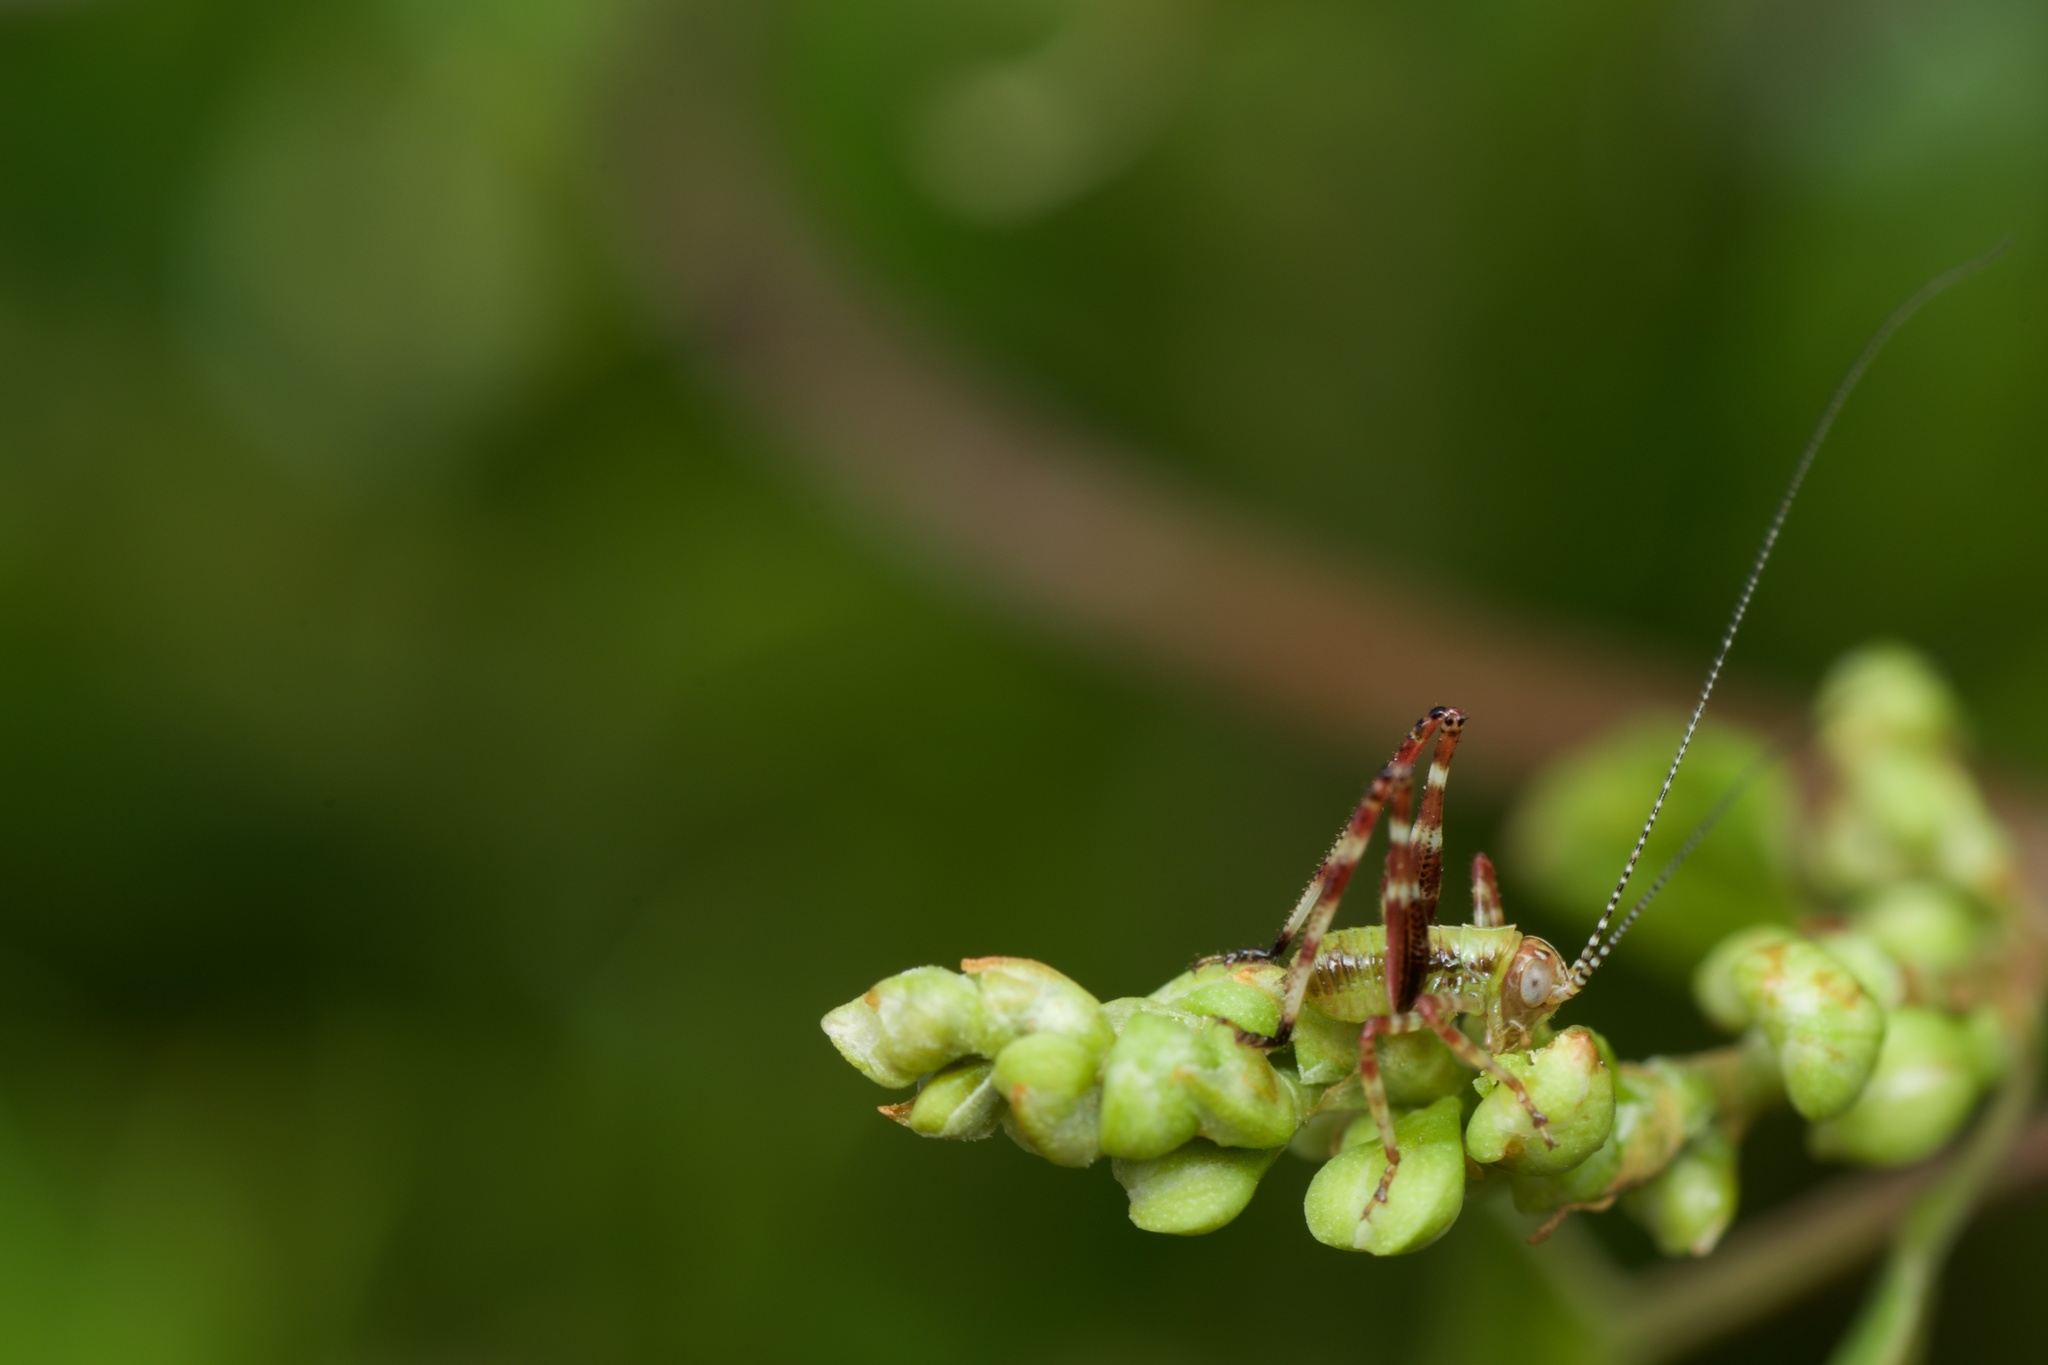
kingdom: Animalia
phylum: Arthropoda
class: Insecta
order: Orthoptera
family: Tettigoniidae
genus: Caedicia
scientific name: Caedicia simplex
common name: Common garden katydid
